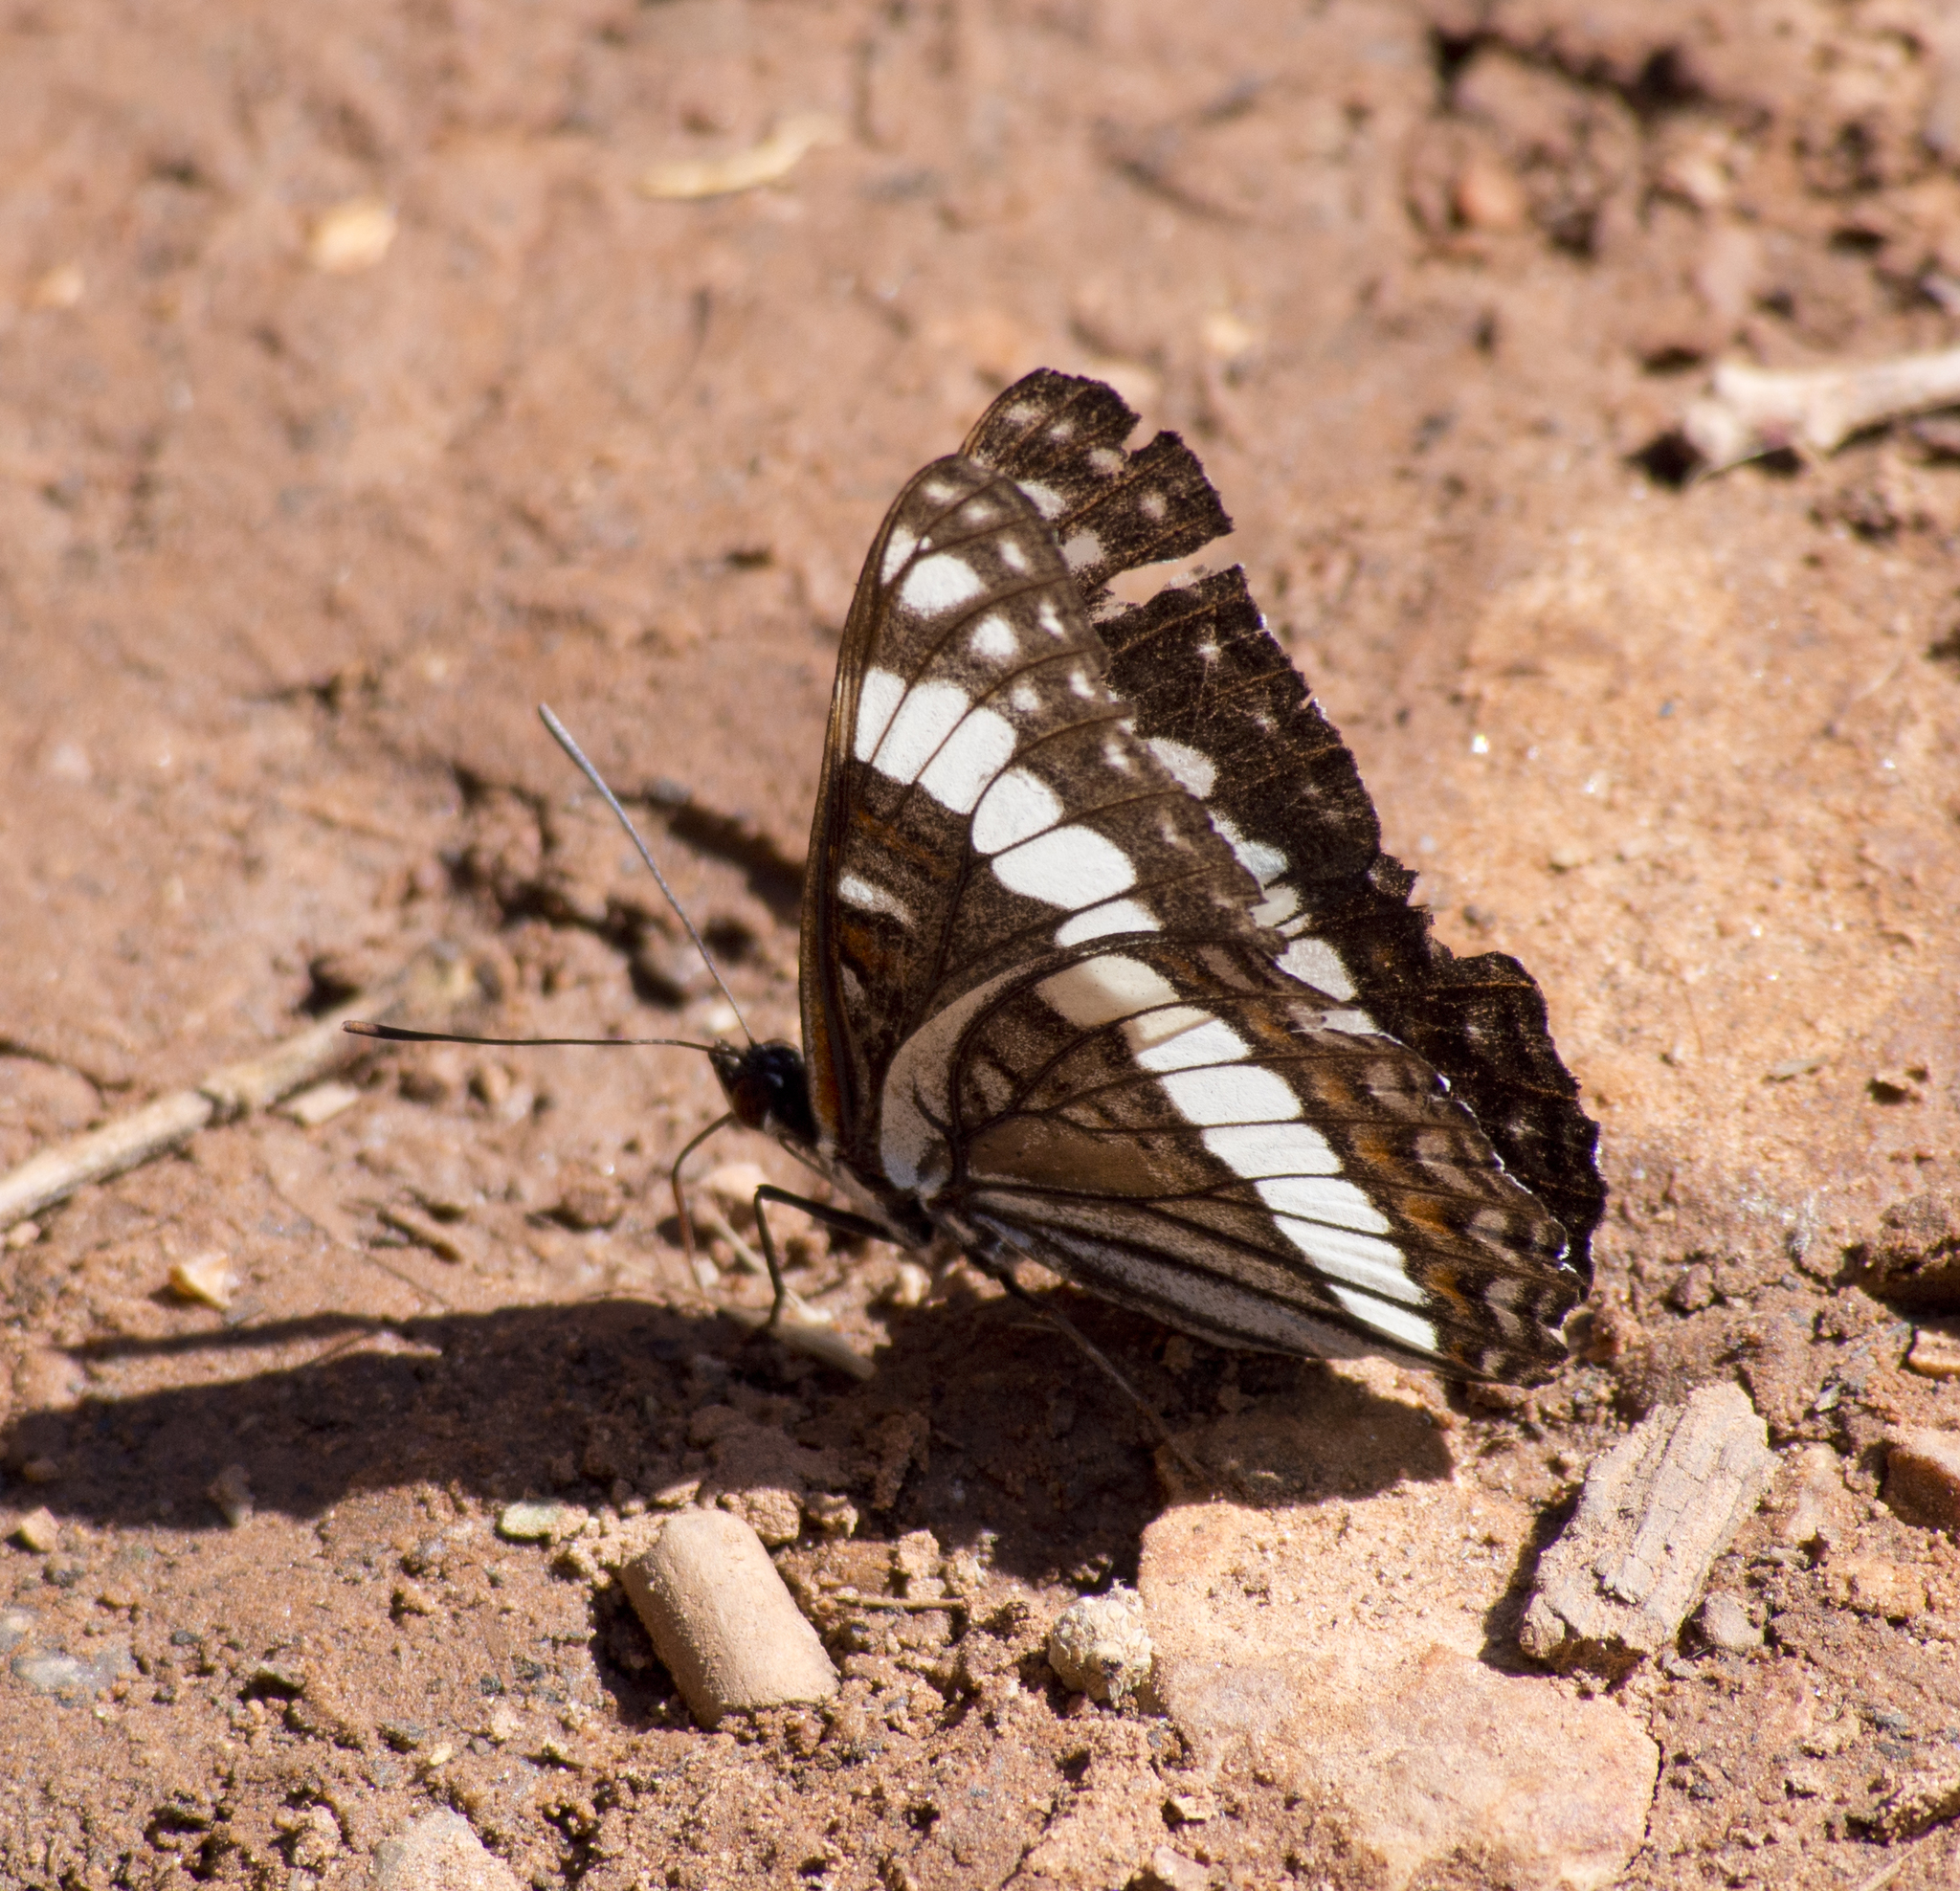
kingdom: Animalia
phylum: Arthropoda
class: Insecta
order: Lepidoptera
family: Nymphalidae
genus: Limenitis
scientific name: Limenitis weidemeyerii
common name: Weidemeyer's admiral
